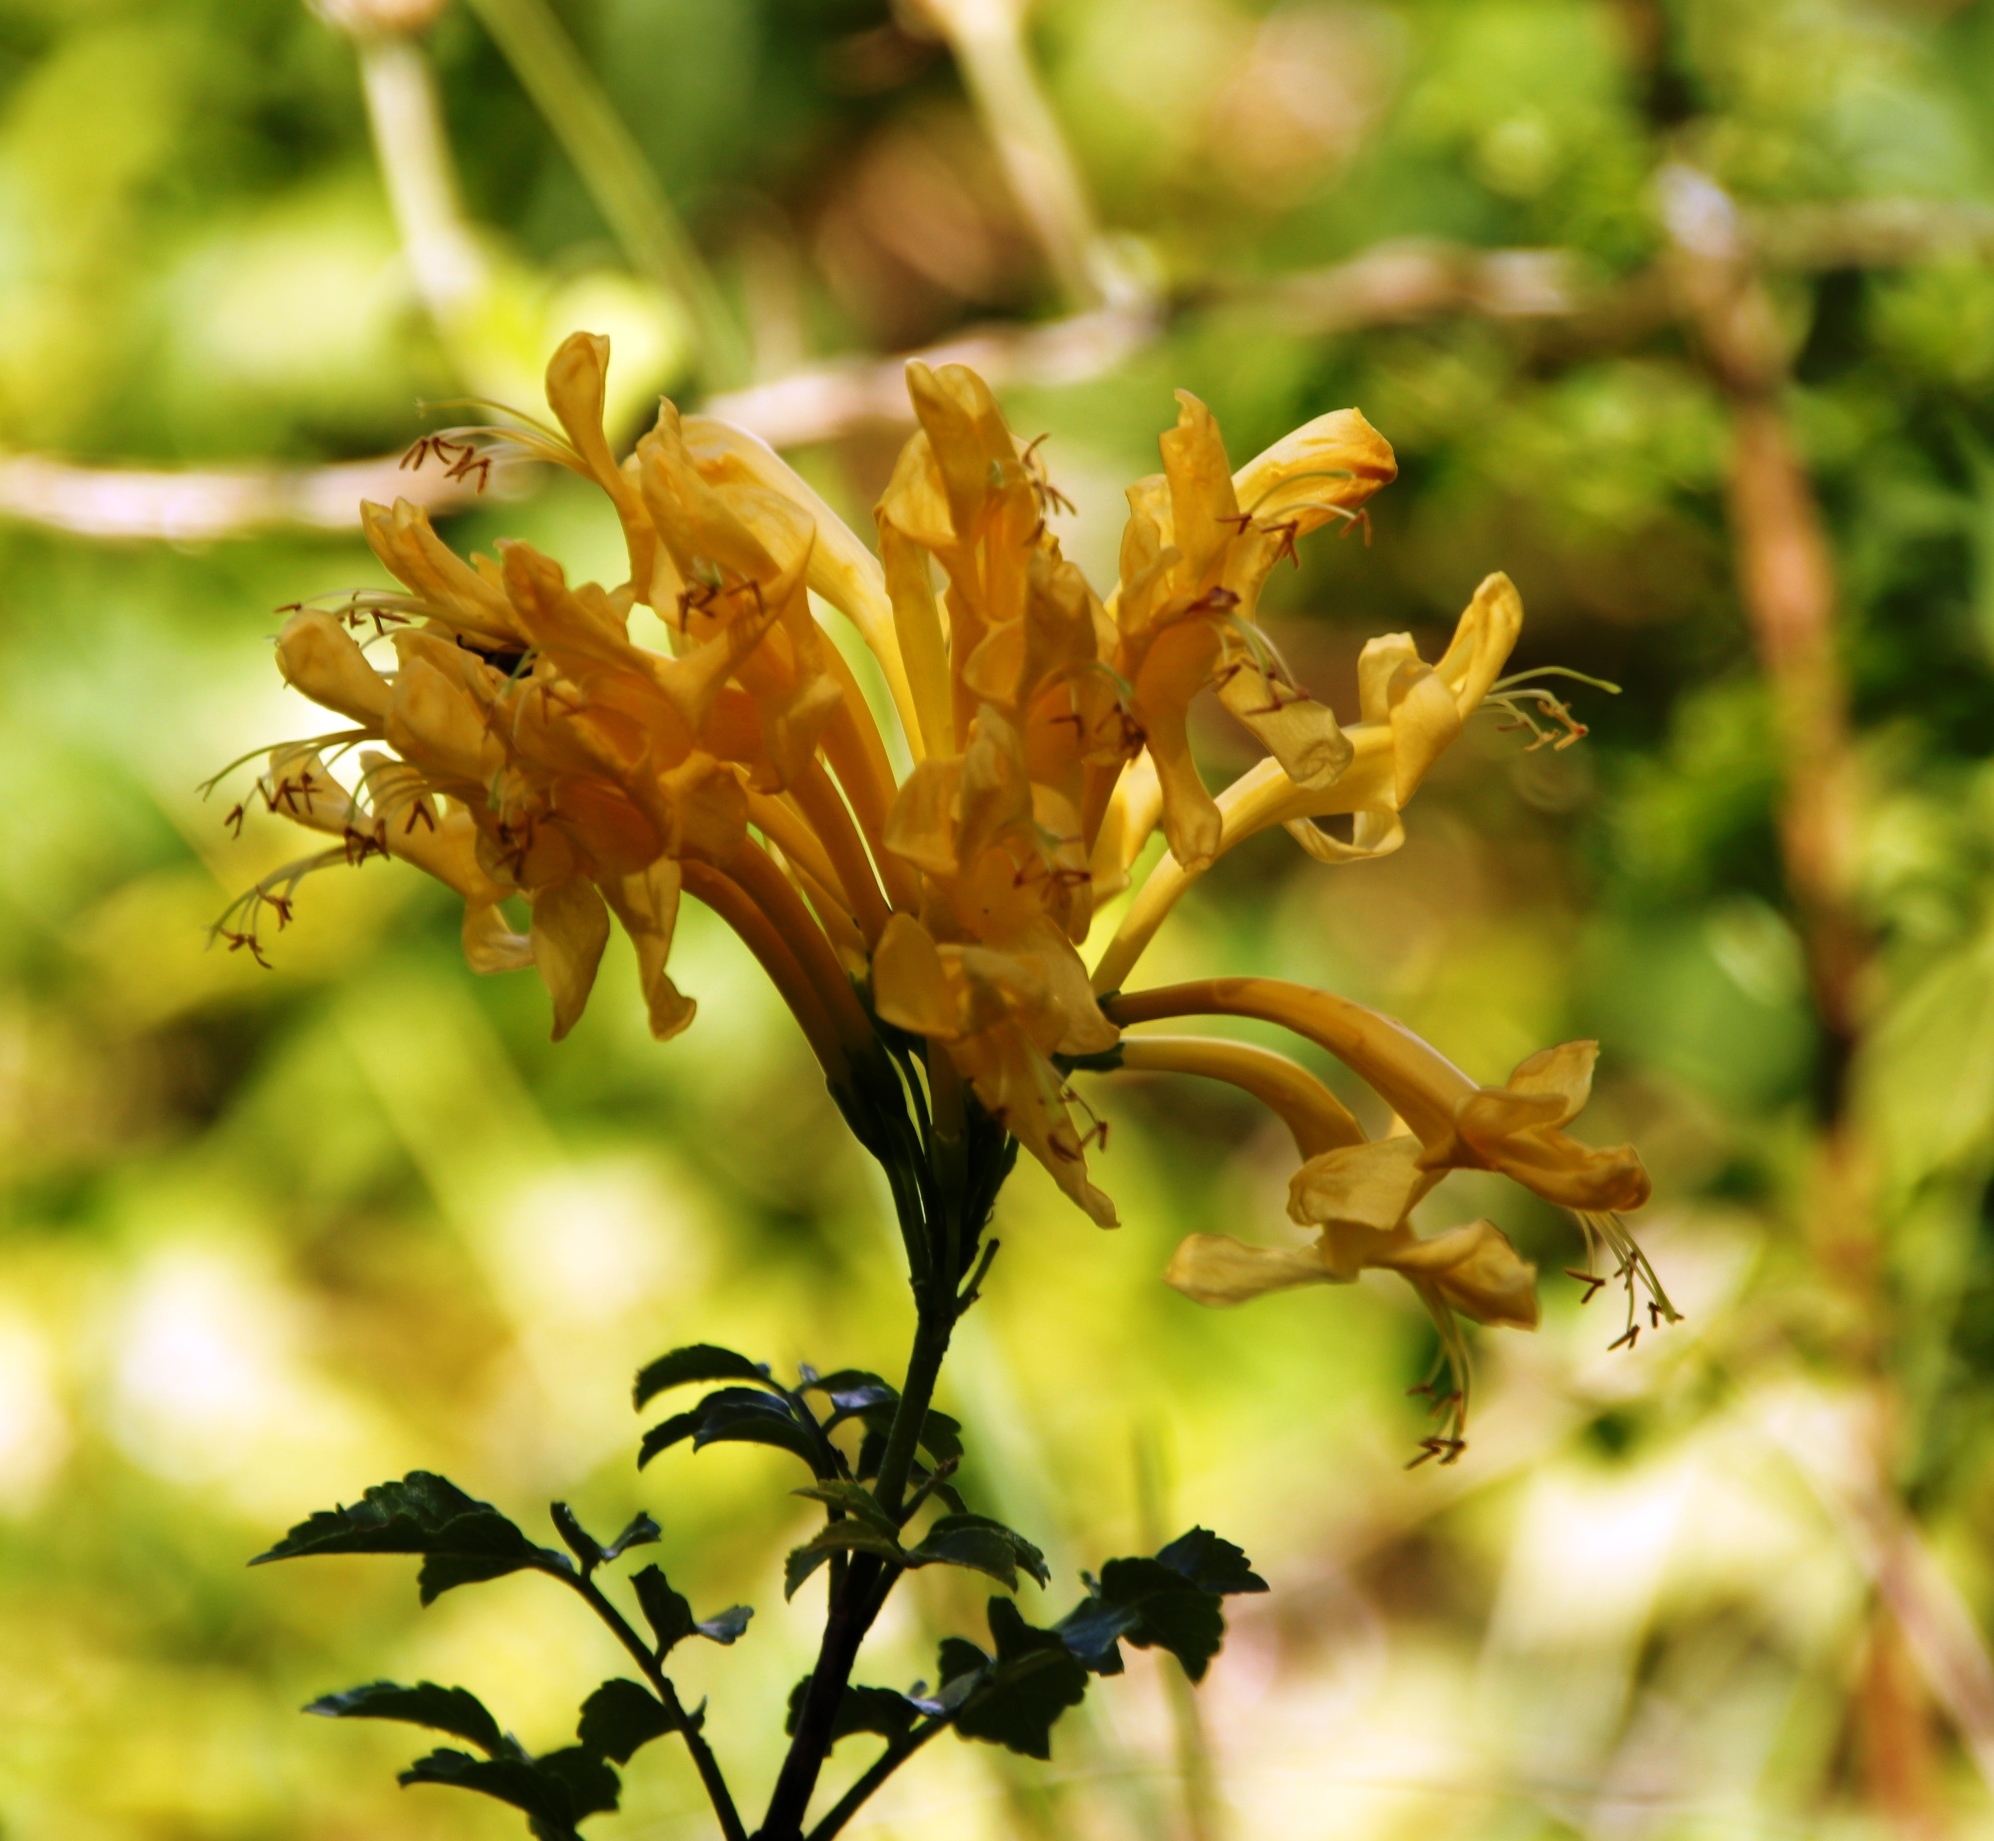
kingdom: Plantae
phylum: Tracheophyta
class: Magnoliopsida
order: Lamiales
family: Bignoniaceae
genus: Tecomaria
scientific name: Tecomaria capensis
